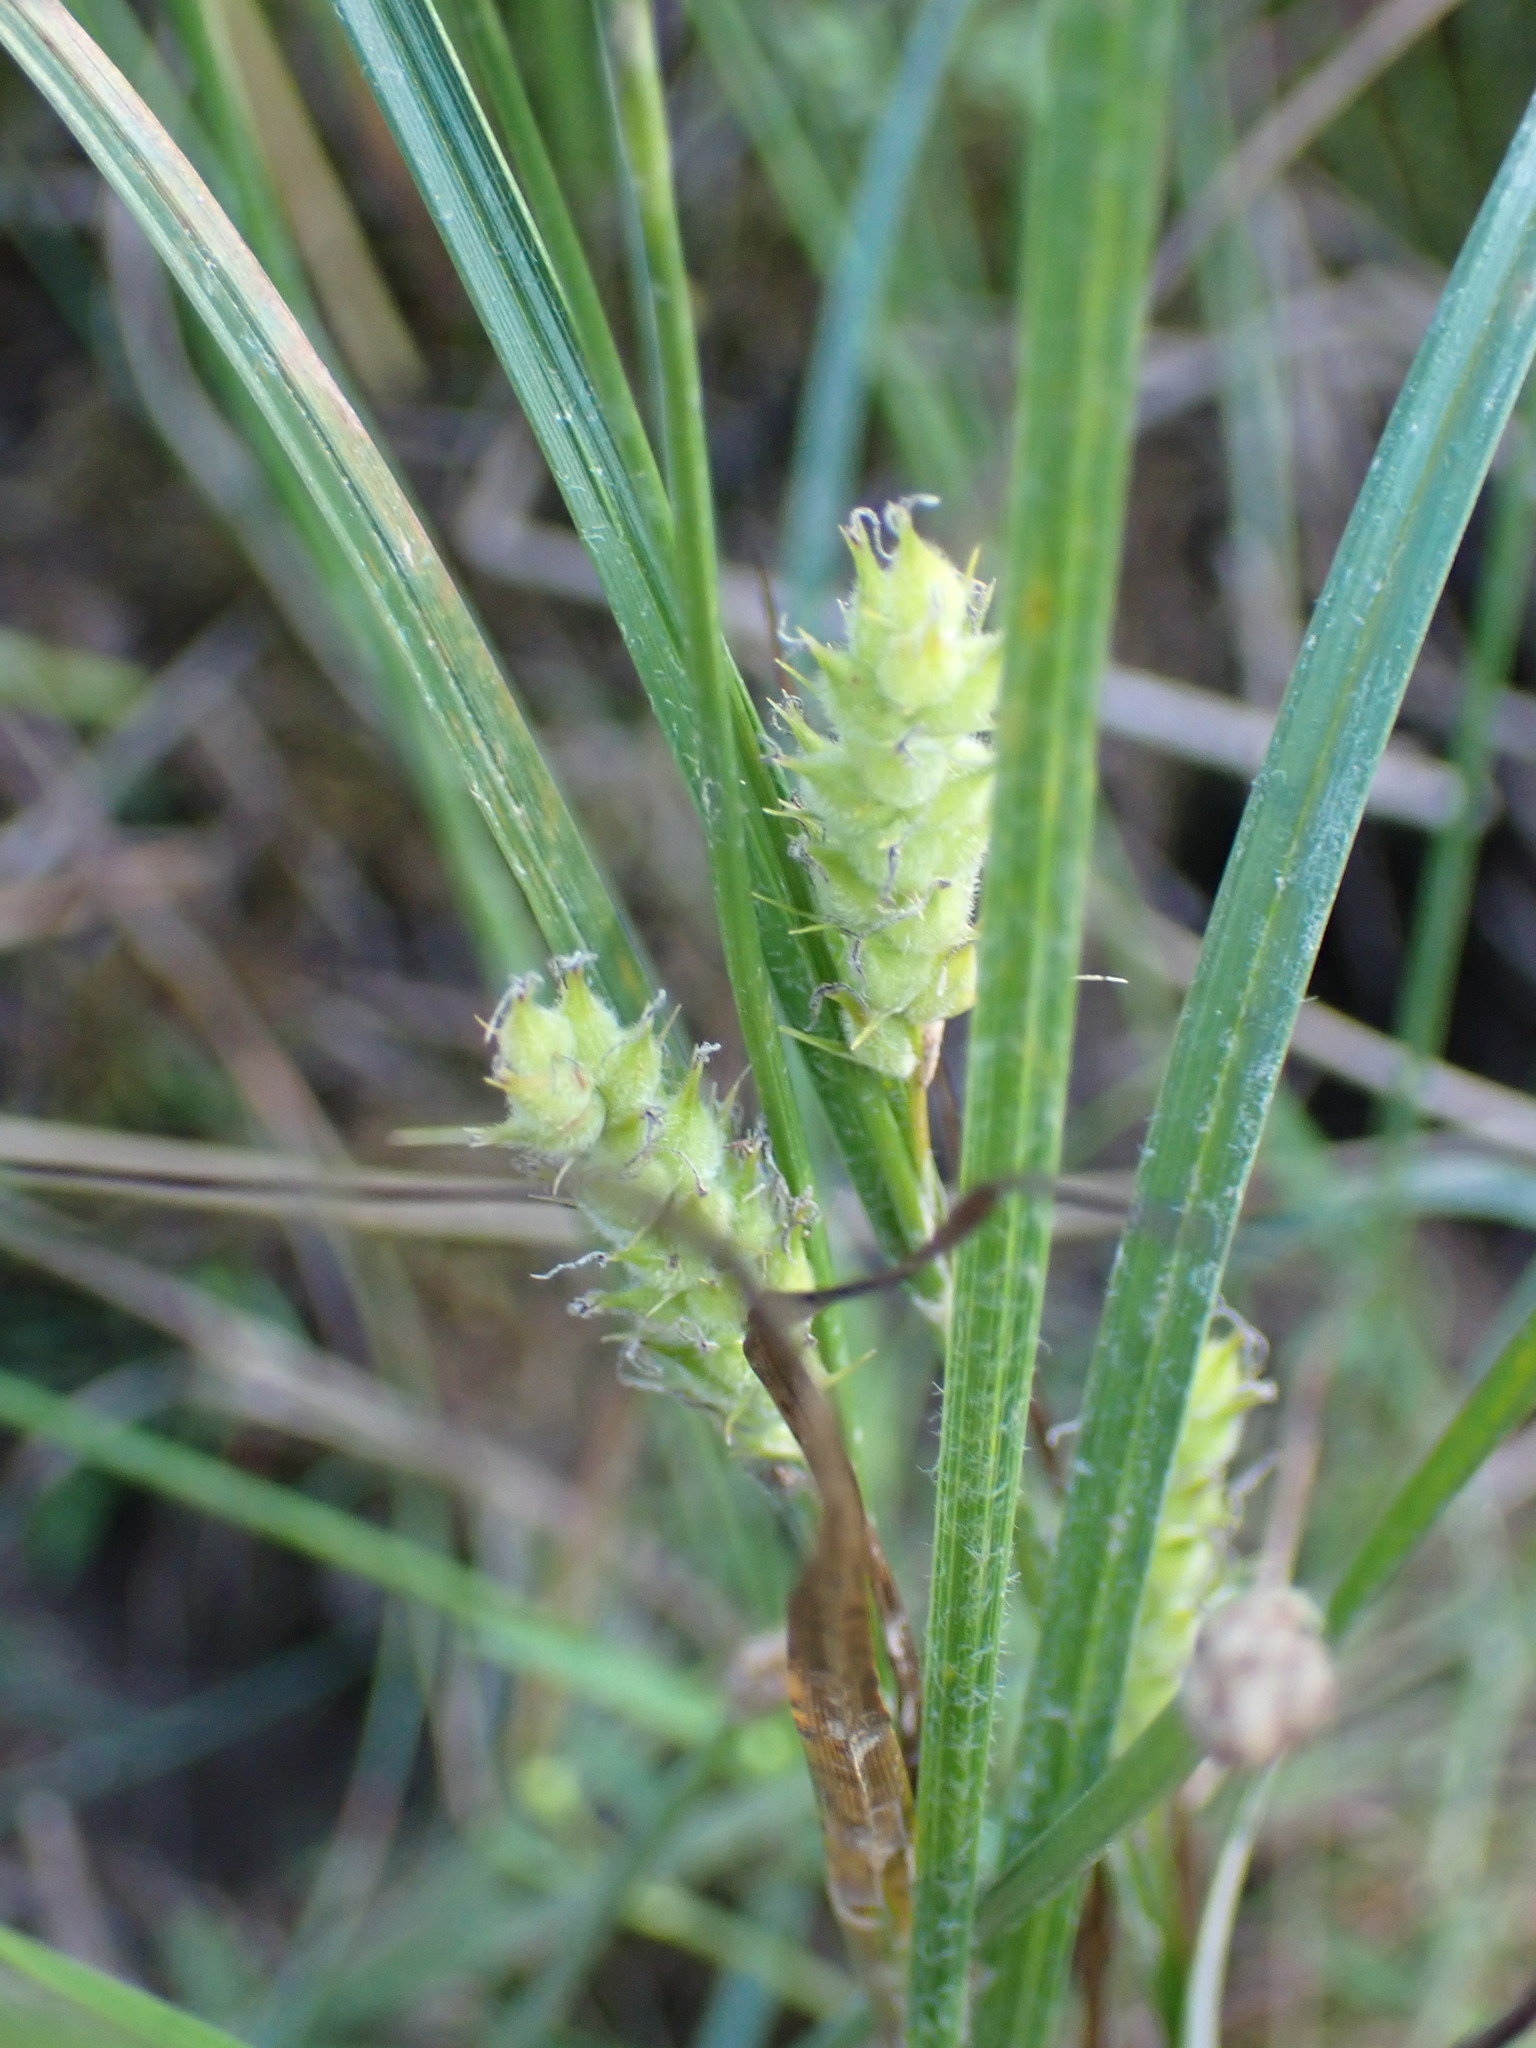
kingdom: Plantae
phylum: Tracheophyta
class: Liliopsida
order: Poales
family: Cyperaceae
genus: Carex
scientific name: Carex hirta
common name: Hairy sedge
